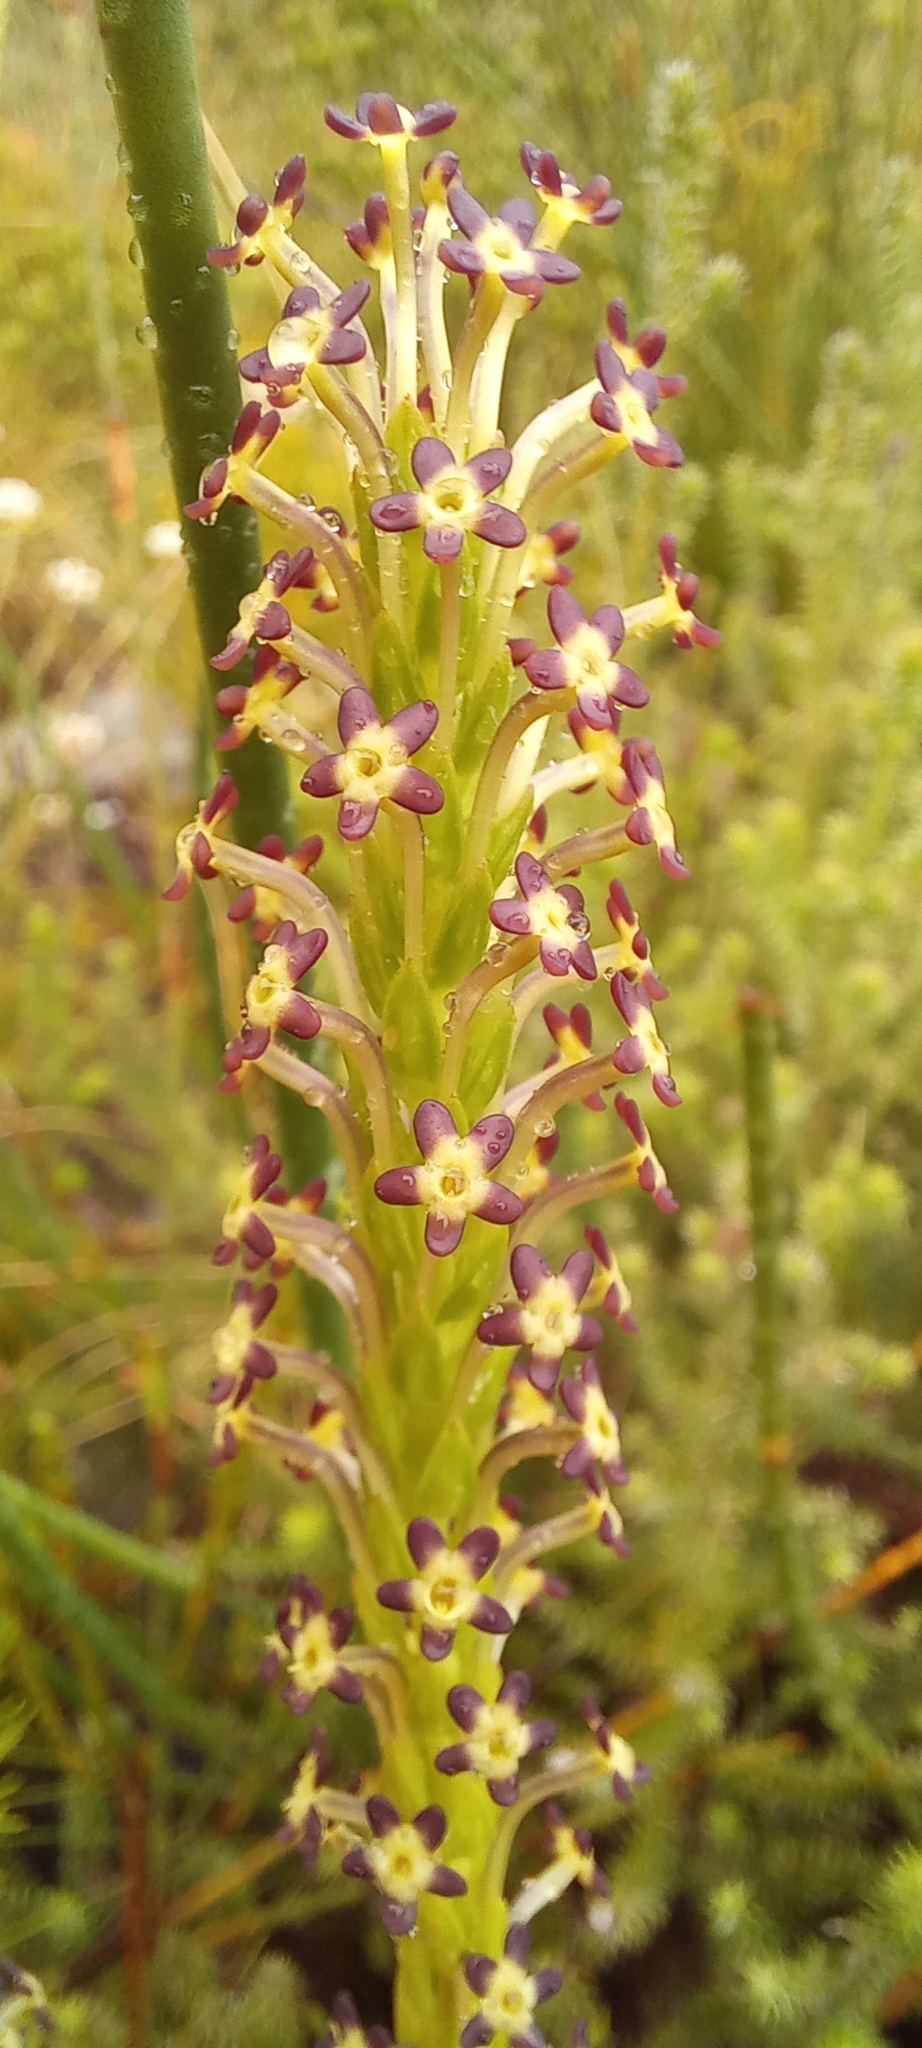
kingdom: Plantae
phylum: Tracheophyta
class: Magnoliopsida
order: Lamiales
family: Scrophulariaceae
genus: Microdon
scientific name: Microdon dubius
